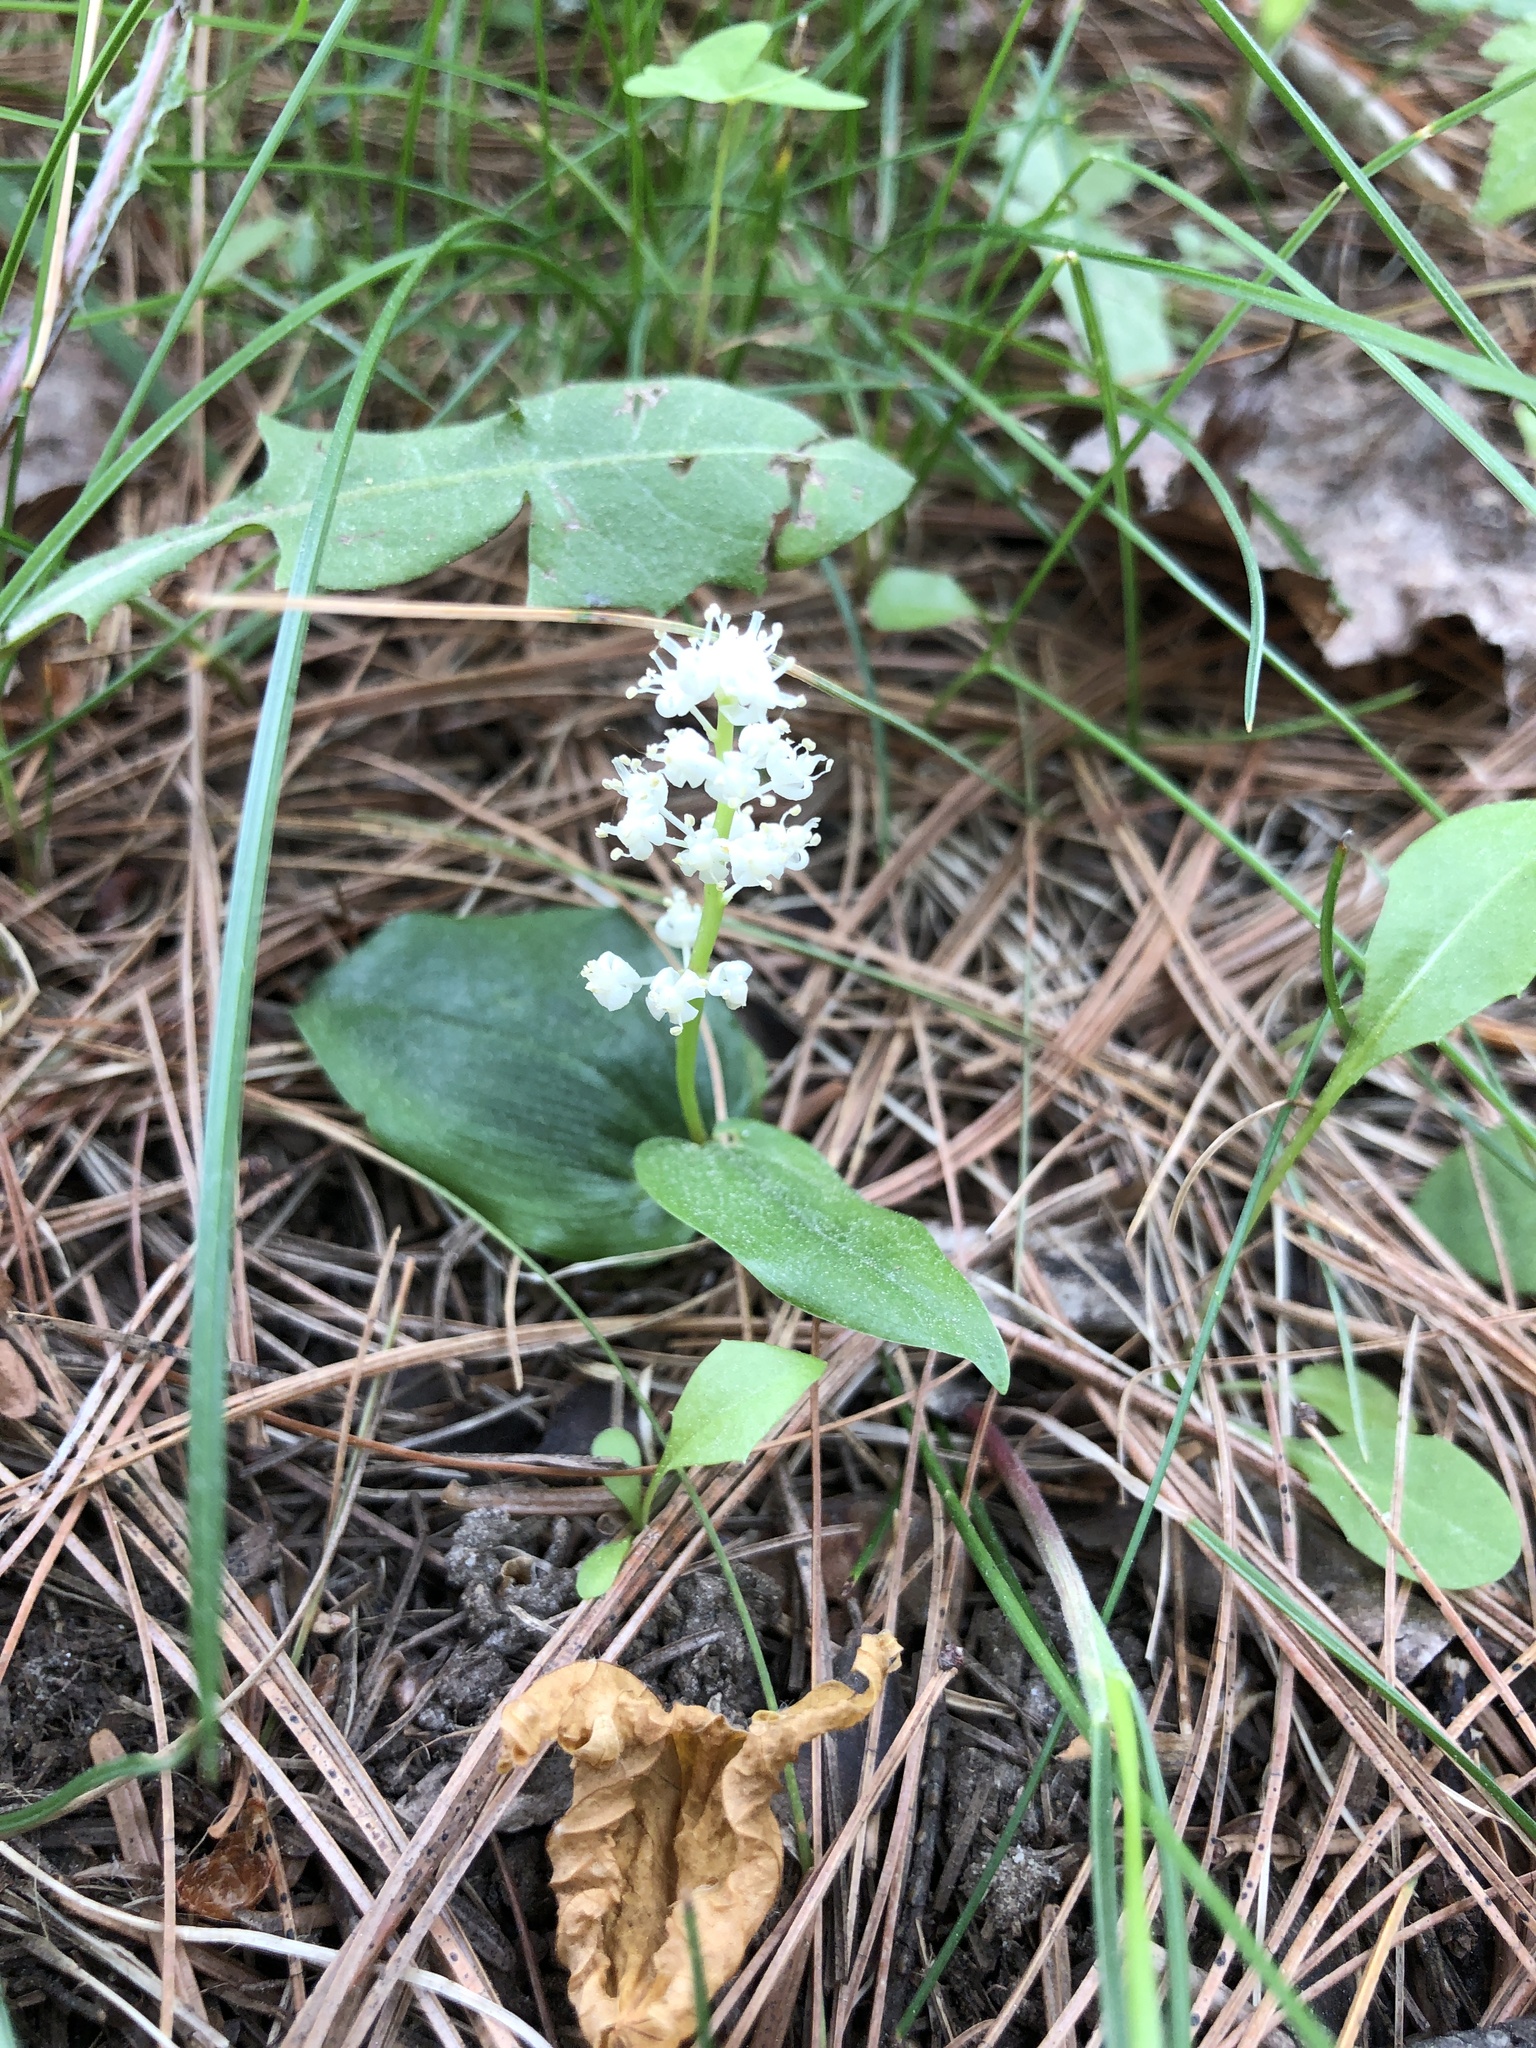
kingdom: Plantae
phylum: Tracheophyta
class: Liliopsida
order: Asparagales
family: Asparagaceae
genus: Maianthemum
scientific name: Maianthemum canadense
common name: False lily-of-the-valley
